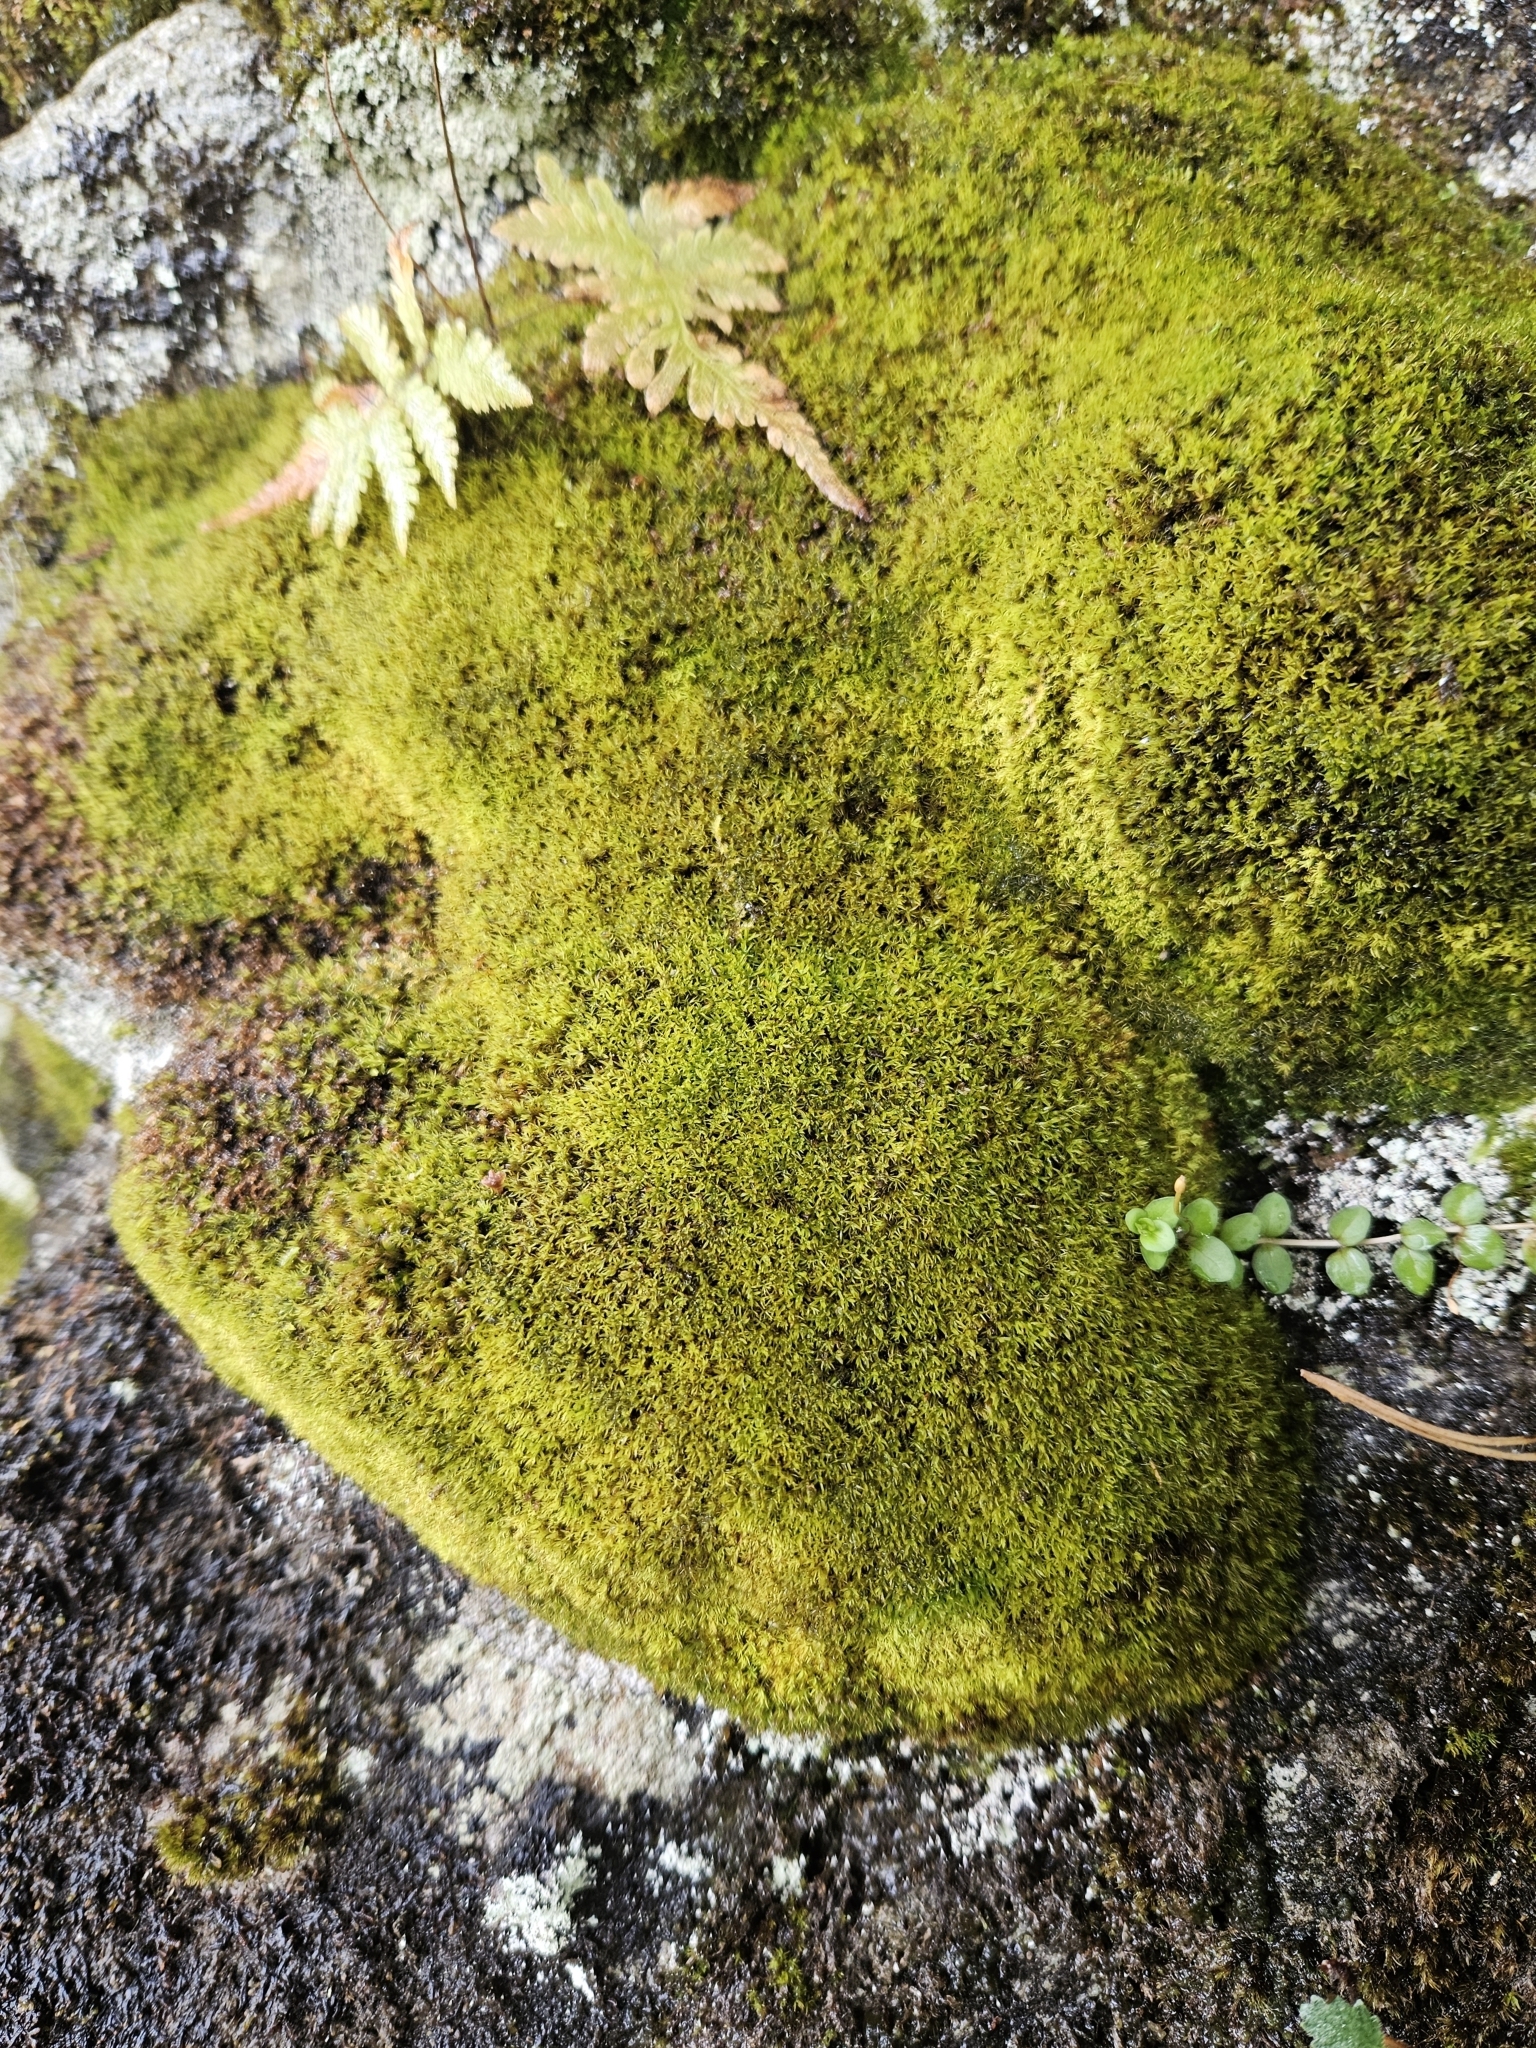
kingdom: Plantae
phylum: Bryophyta
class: Bryopsida
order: Pottiales
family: Pottiaceae
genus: Trichostomum
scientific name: Trichostomum brachydontium
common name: Variable crisp-moss
